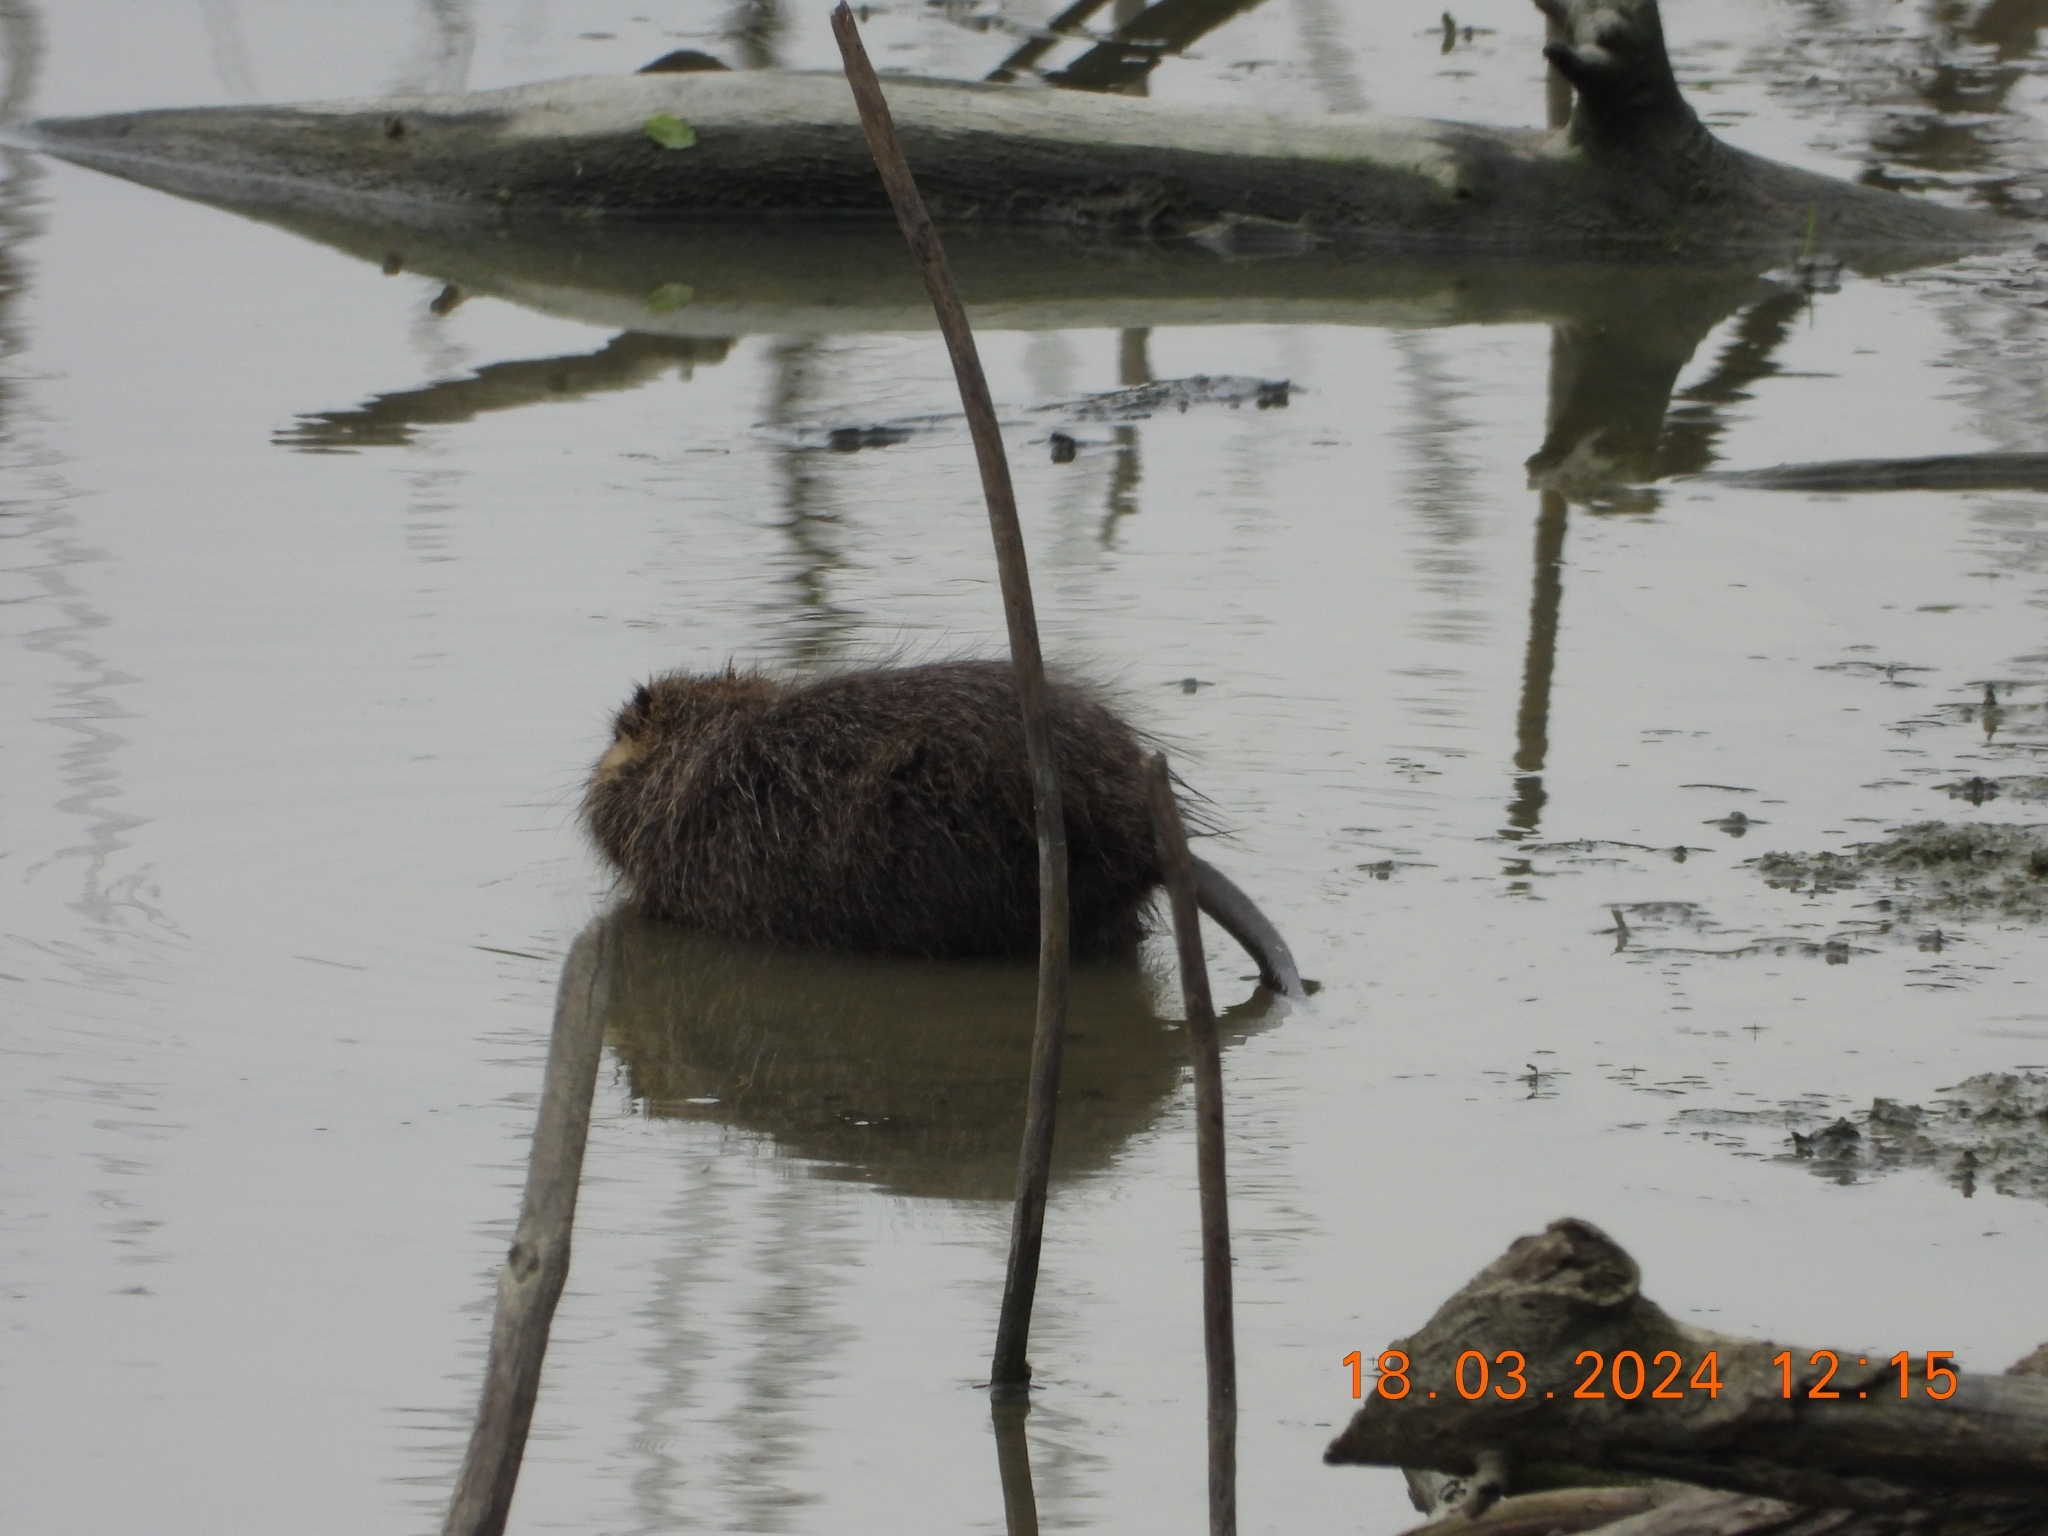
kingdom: Animalia
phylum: Chordata
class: Mammalia
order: Rodentia
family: Myocastoridae
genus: Myocastor
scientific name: Myocastor coypus
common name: Coypu
